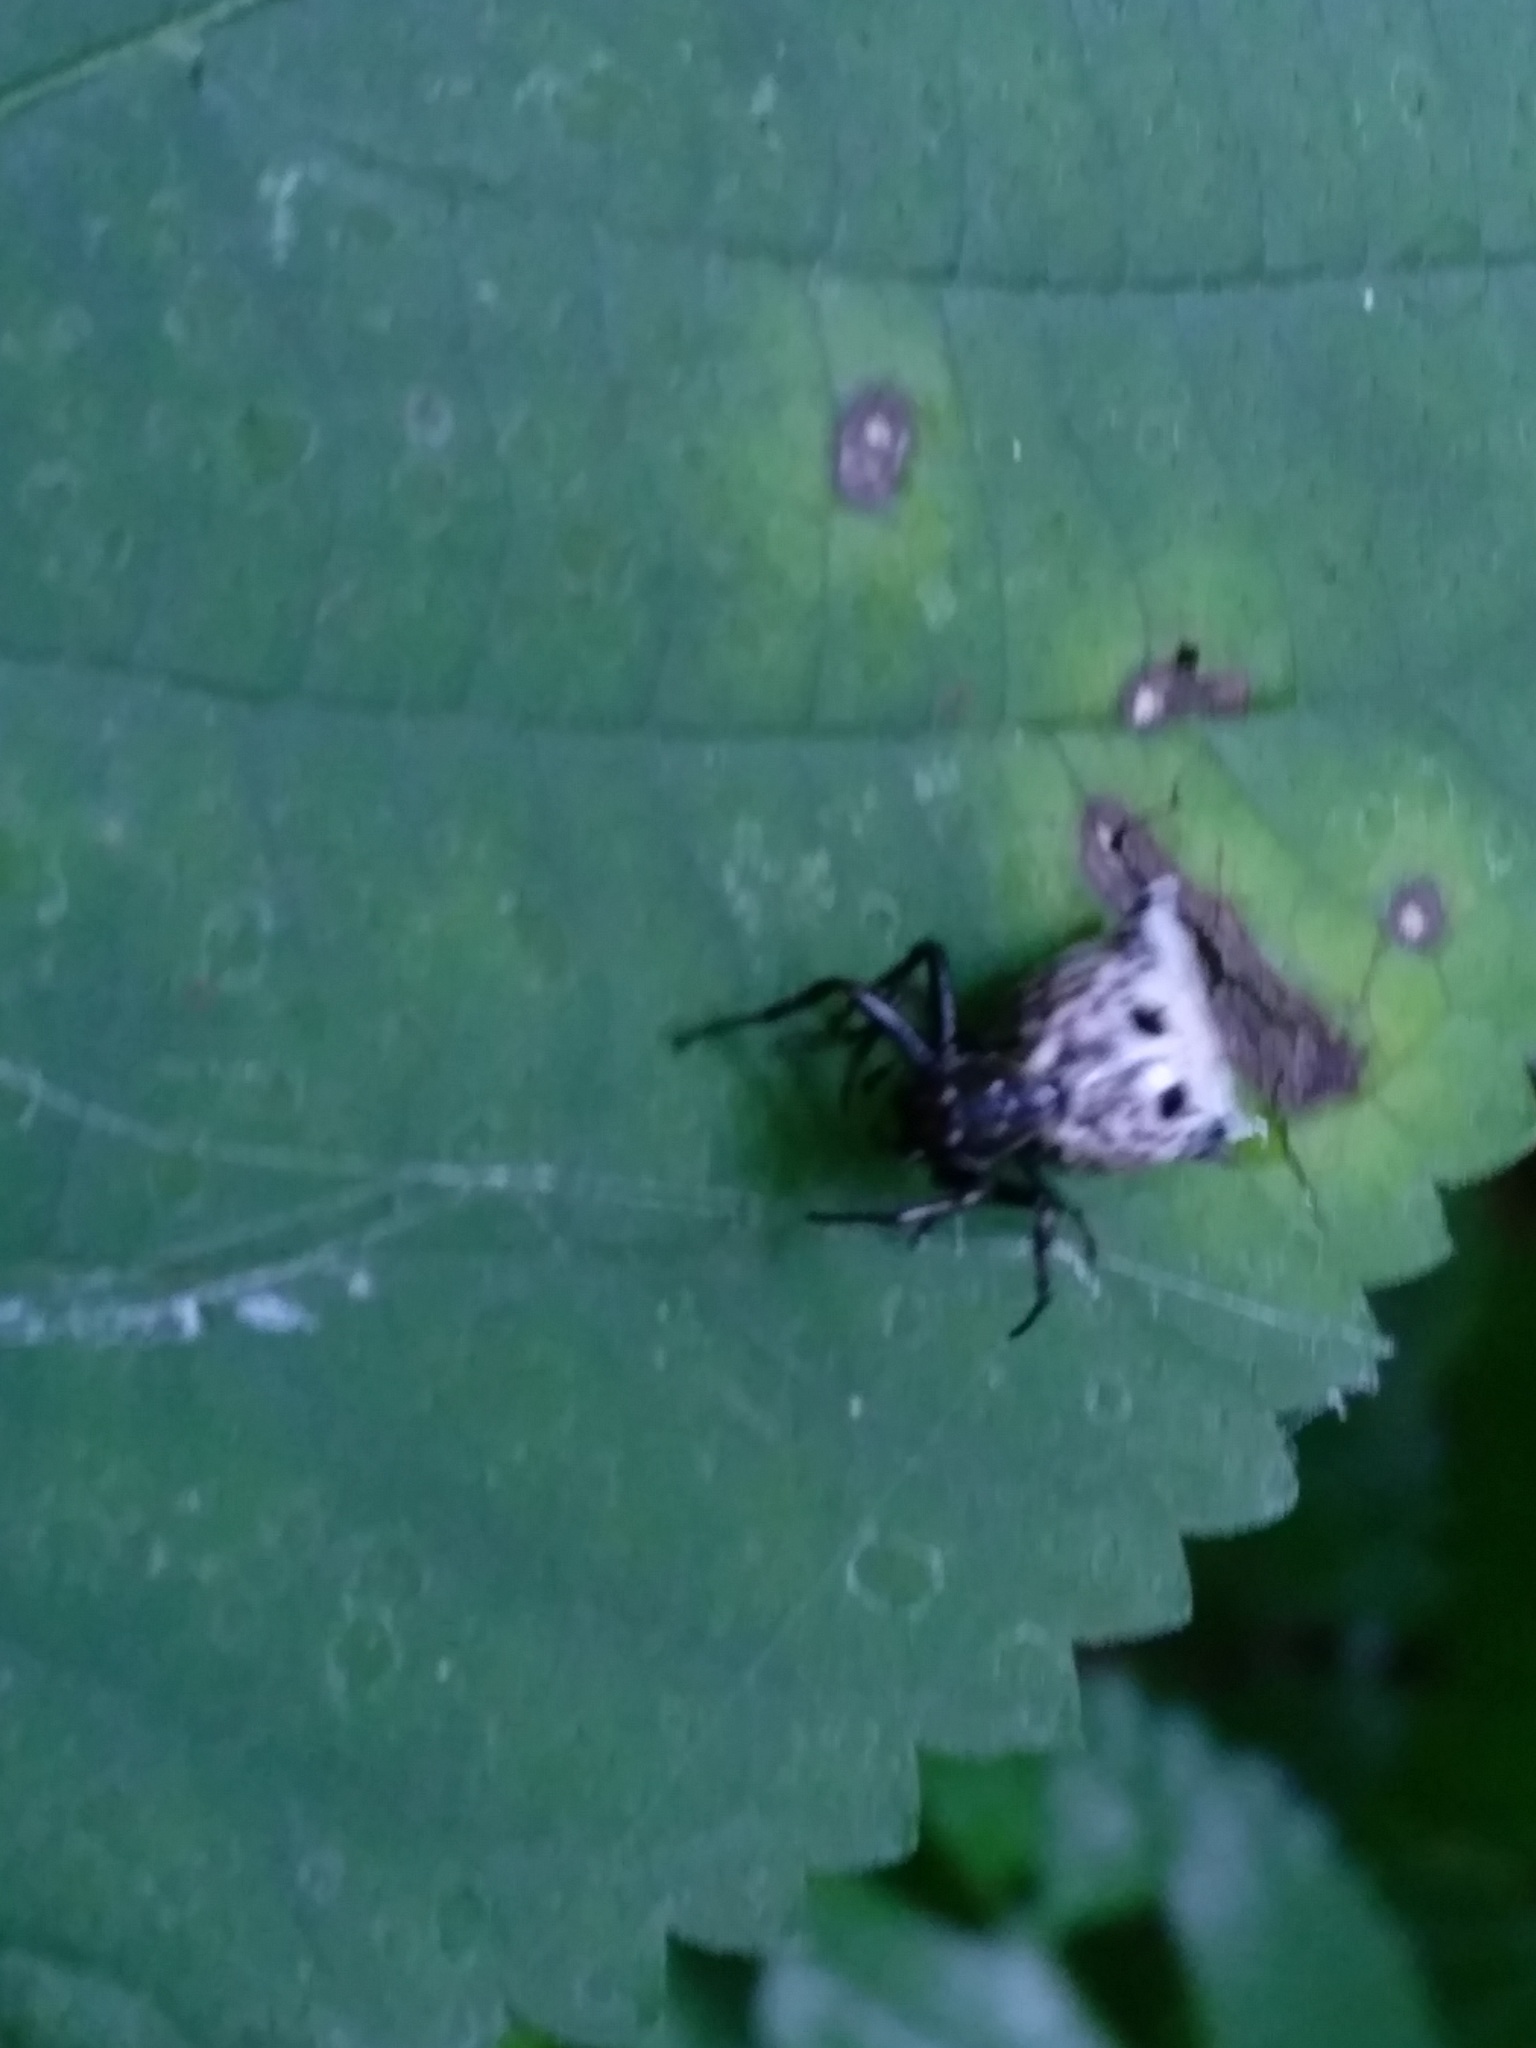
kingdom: Animalia
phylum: Arthropoda
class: Arachnida
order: Araneae
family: Araneidae
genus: Micrathena
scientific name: Micrathena gracilis
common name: Orb weavers
